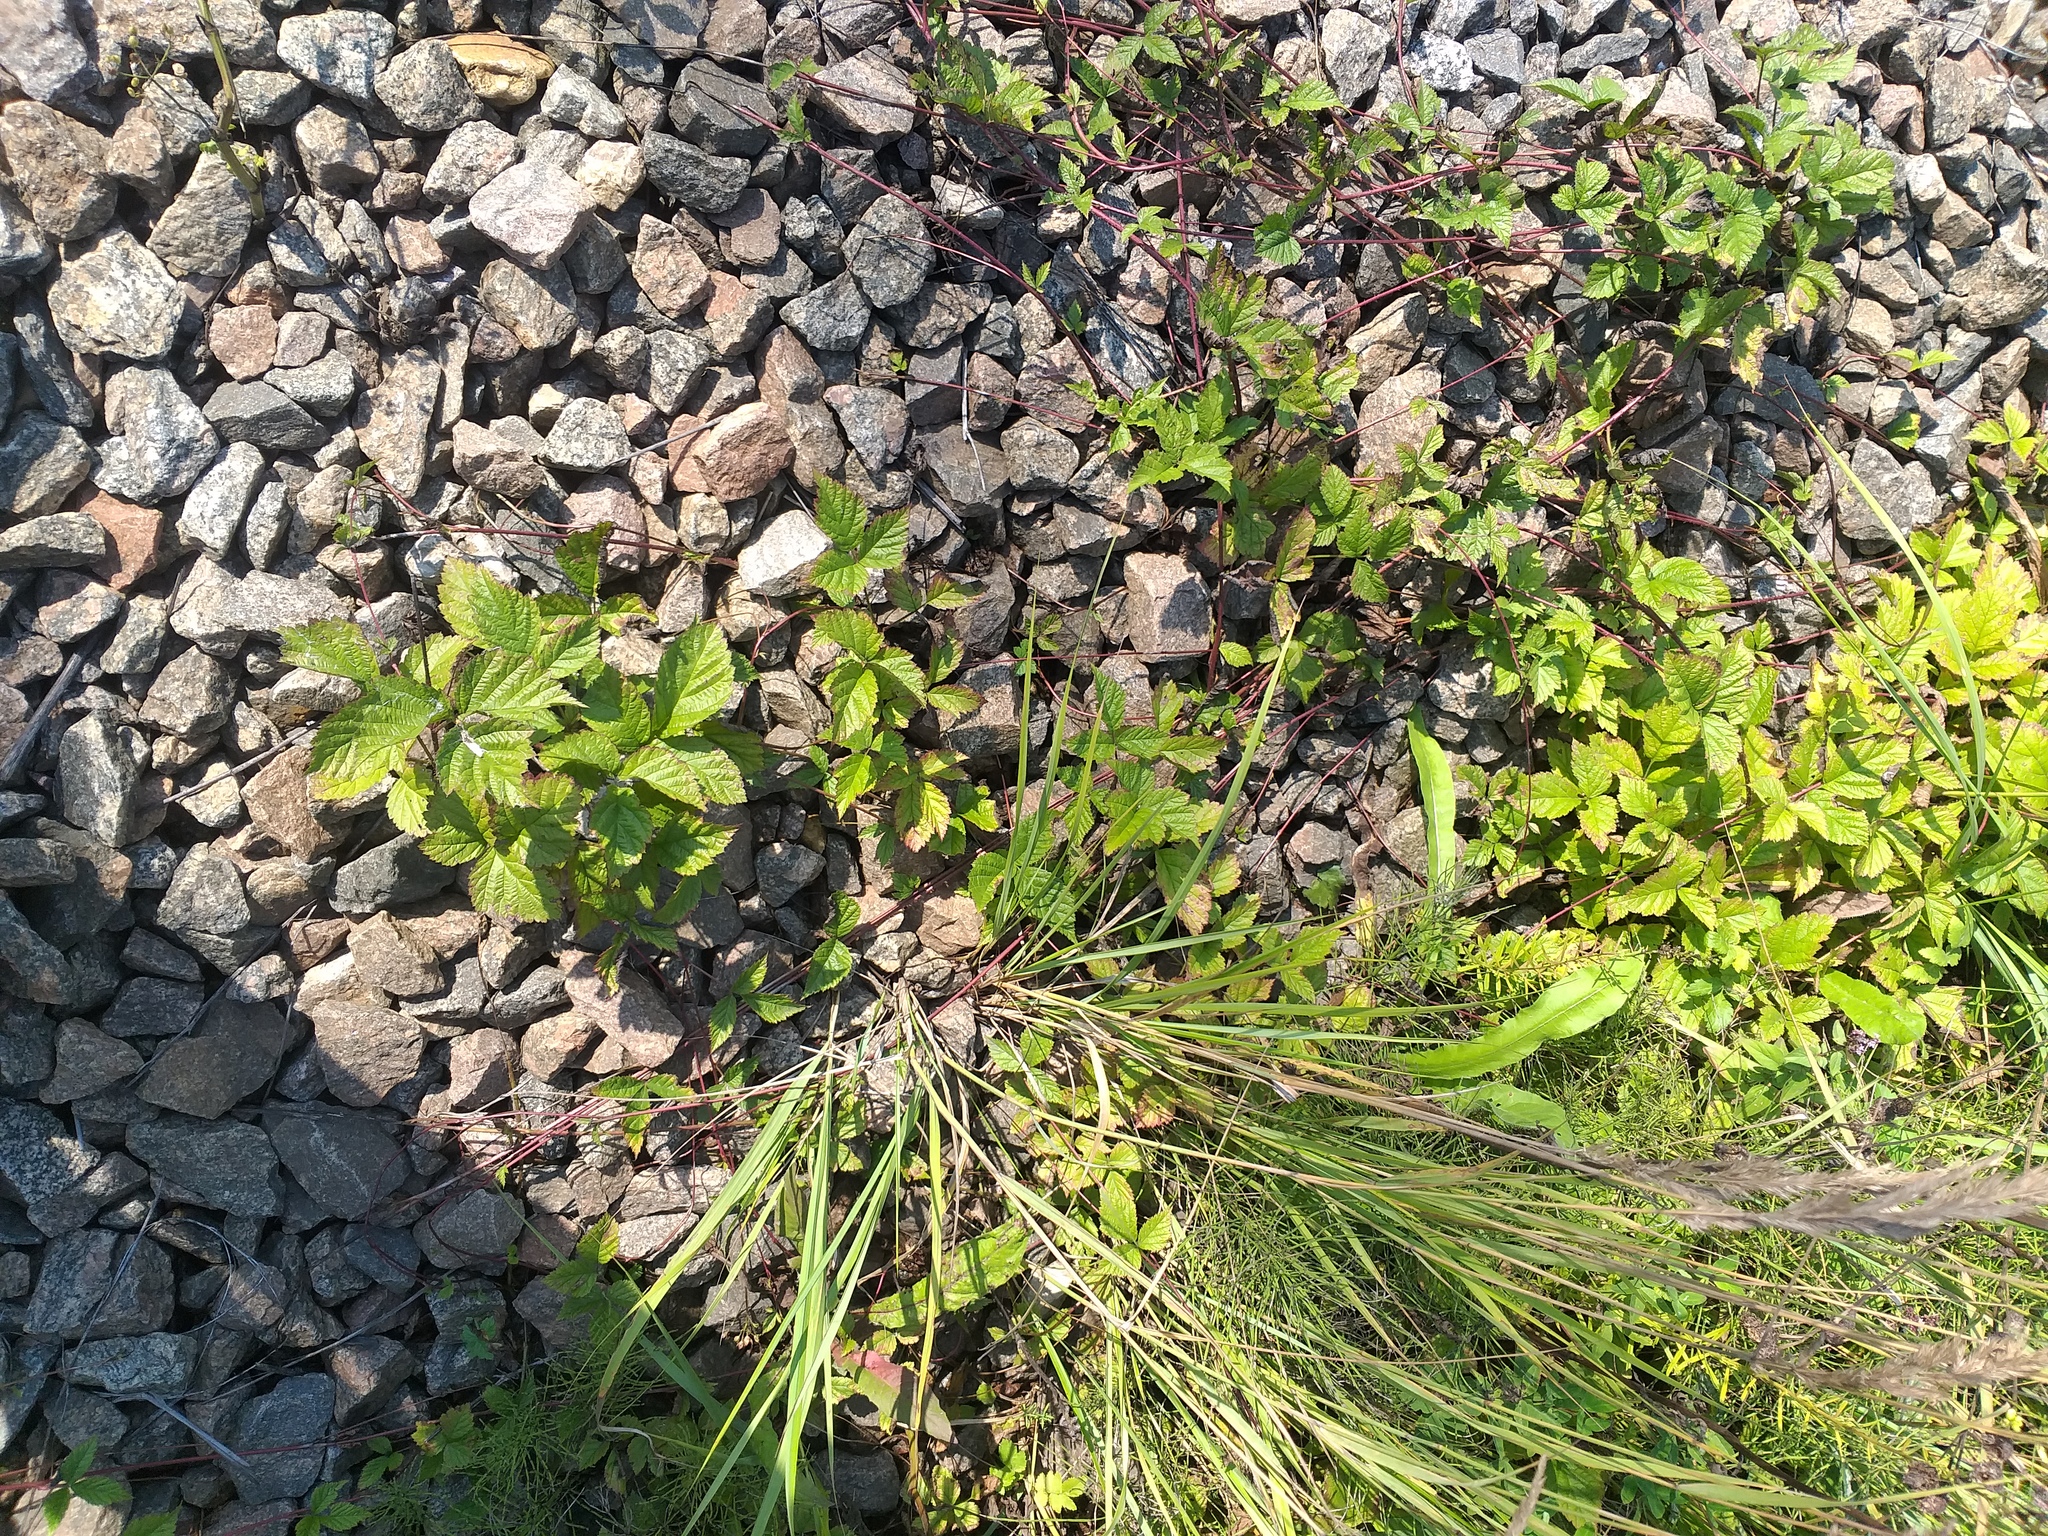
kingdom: Plantae
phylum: Tracheophyta
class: Magnoliopsida
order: Rosales
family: Rosaceae
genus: Rubus
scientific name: Rubus saxatilis
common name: Stone bramble
